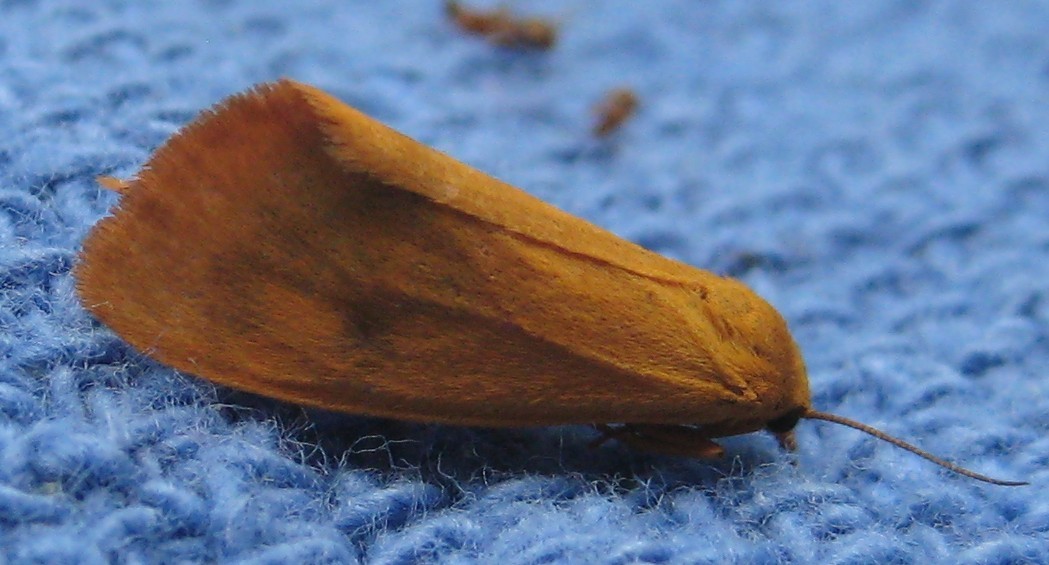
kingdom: Animalia
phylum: Arthropoda
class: Insecta
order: Lepidoptera
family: Erebidae
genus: Virbia
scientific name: Virbia aurantiaca
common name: Orange virbia moth
